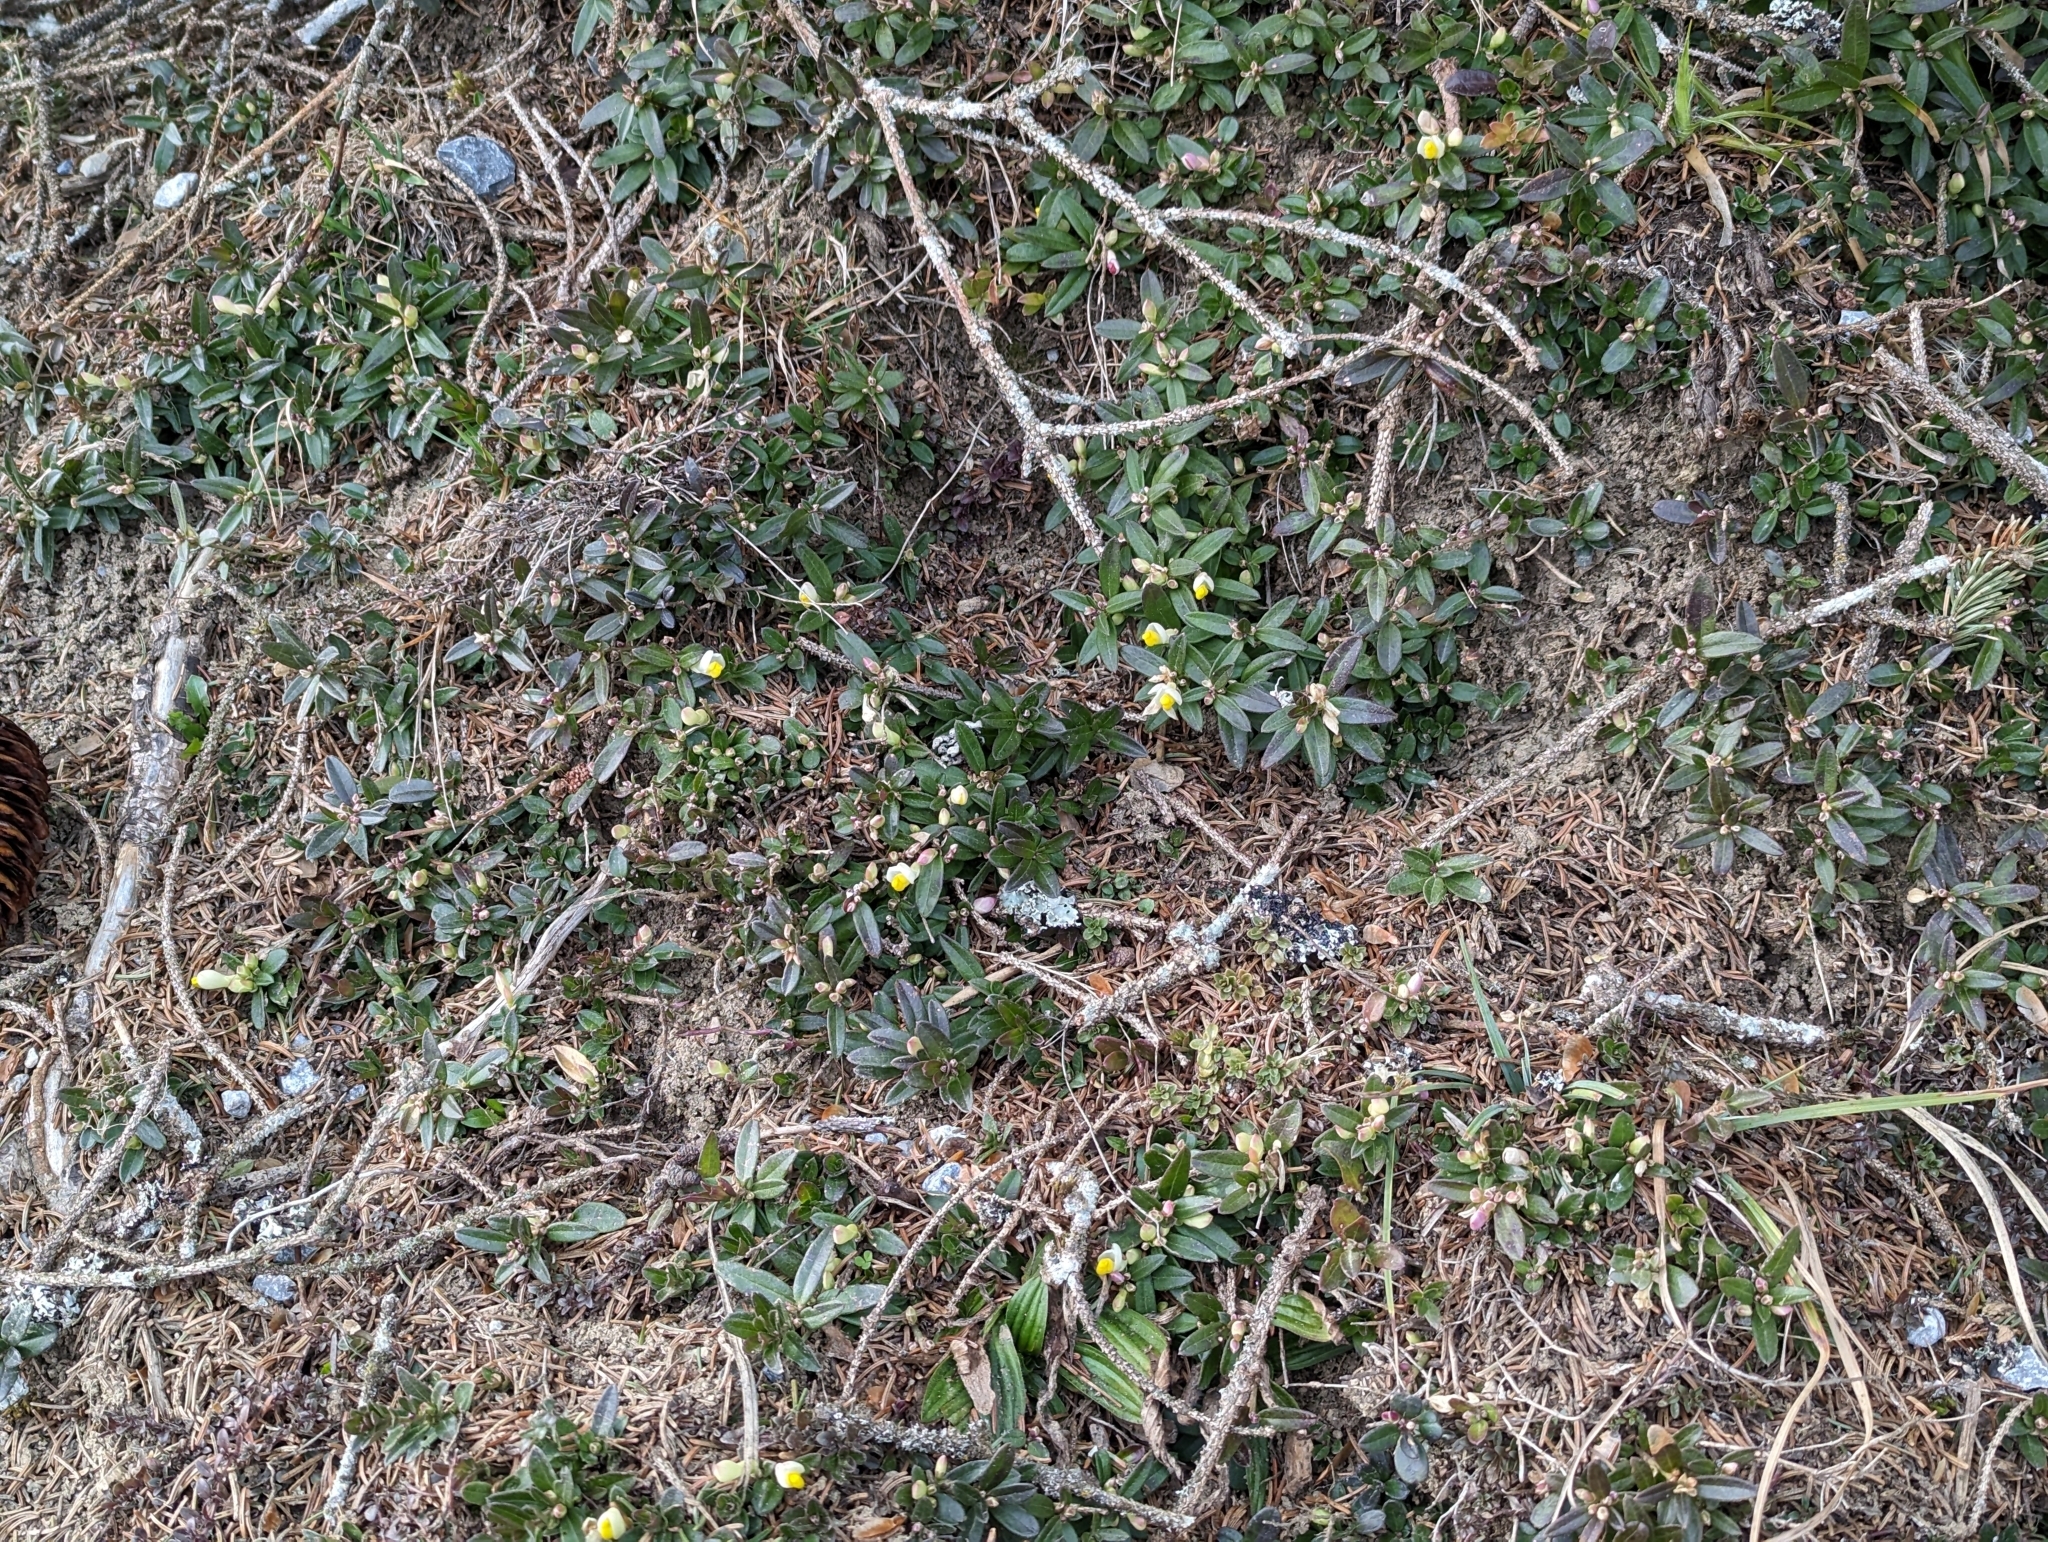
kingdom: Plantae
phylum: Tracheophyta
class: Magnoliopsida
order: Fabales
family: Polygalaceae
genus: Polygaloides
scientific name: Polygaloides chamaebuxus
